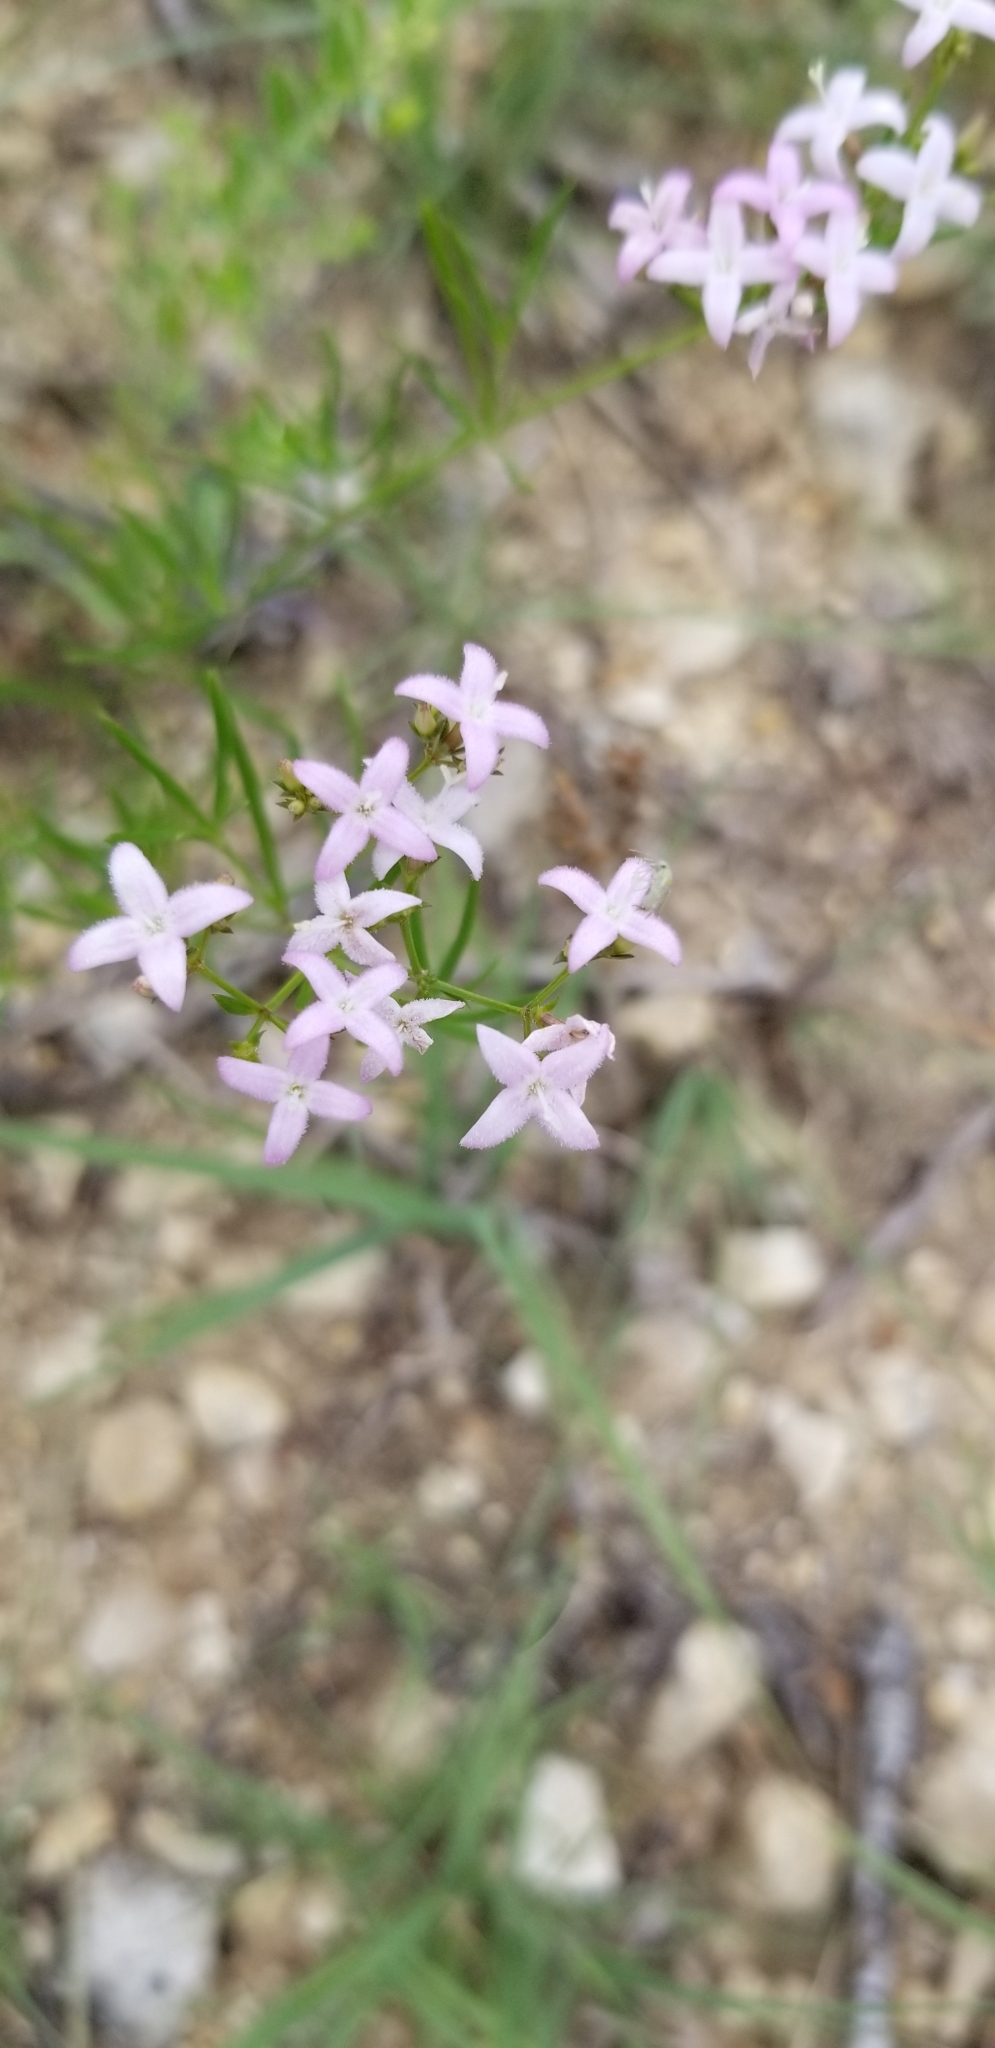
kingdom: Plantae
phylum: Tracheophyta
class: Magnoliopsida
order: Gentianales
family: Rubiaceae
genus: Stenaria
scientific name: Stenaria nigricans
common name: Diamondflowers
